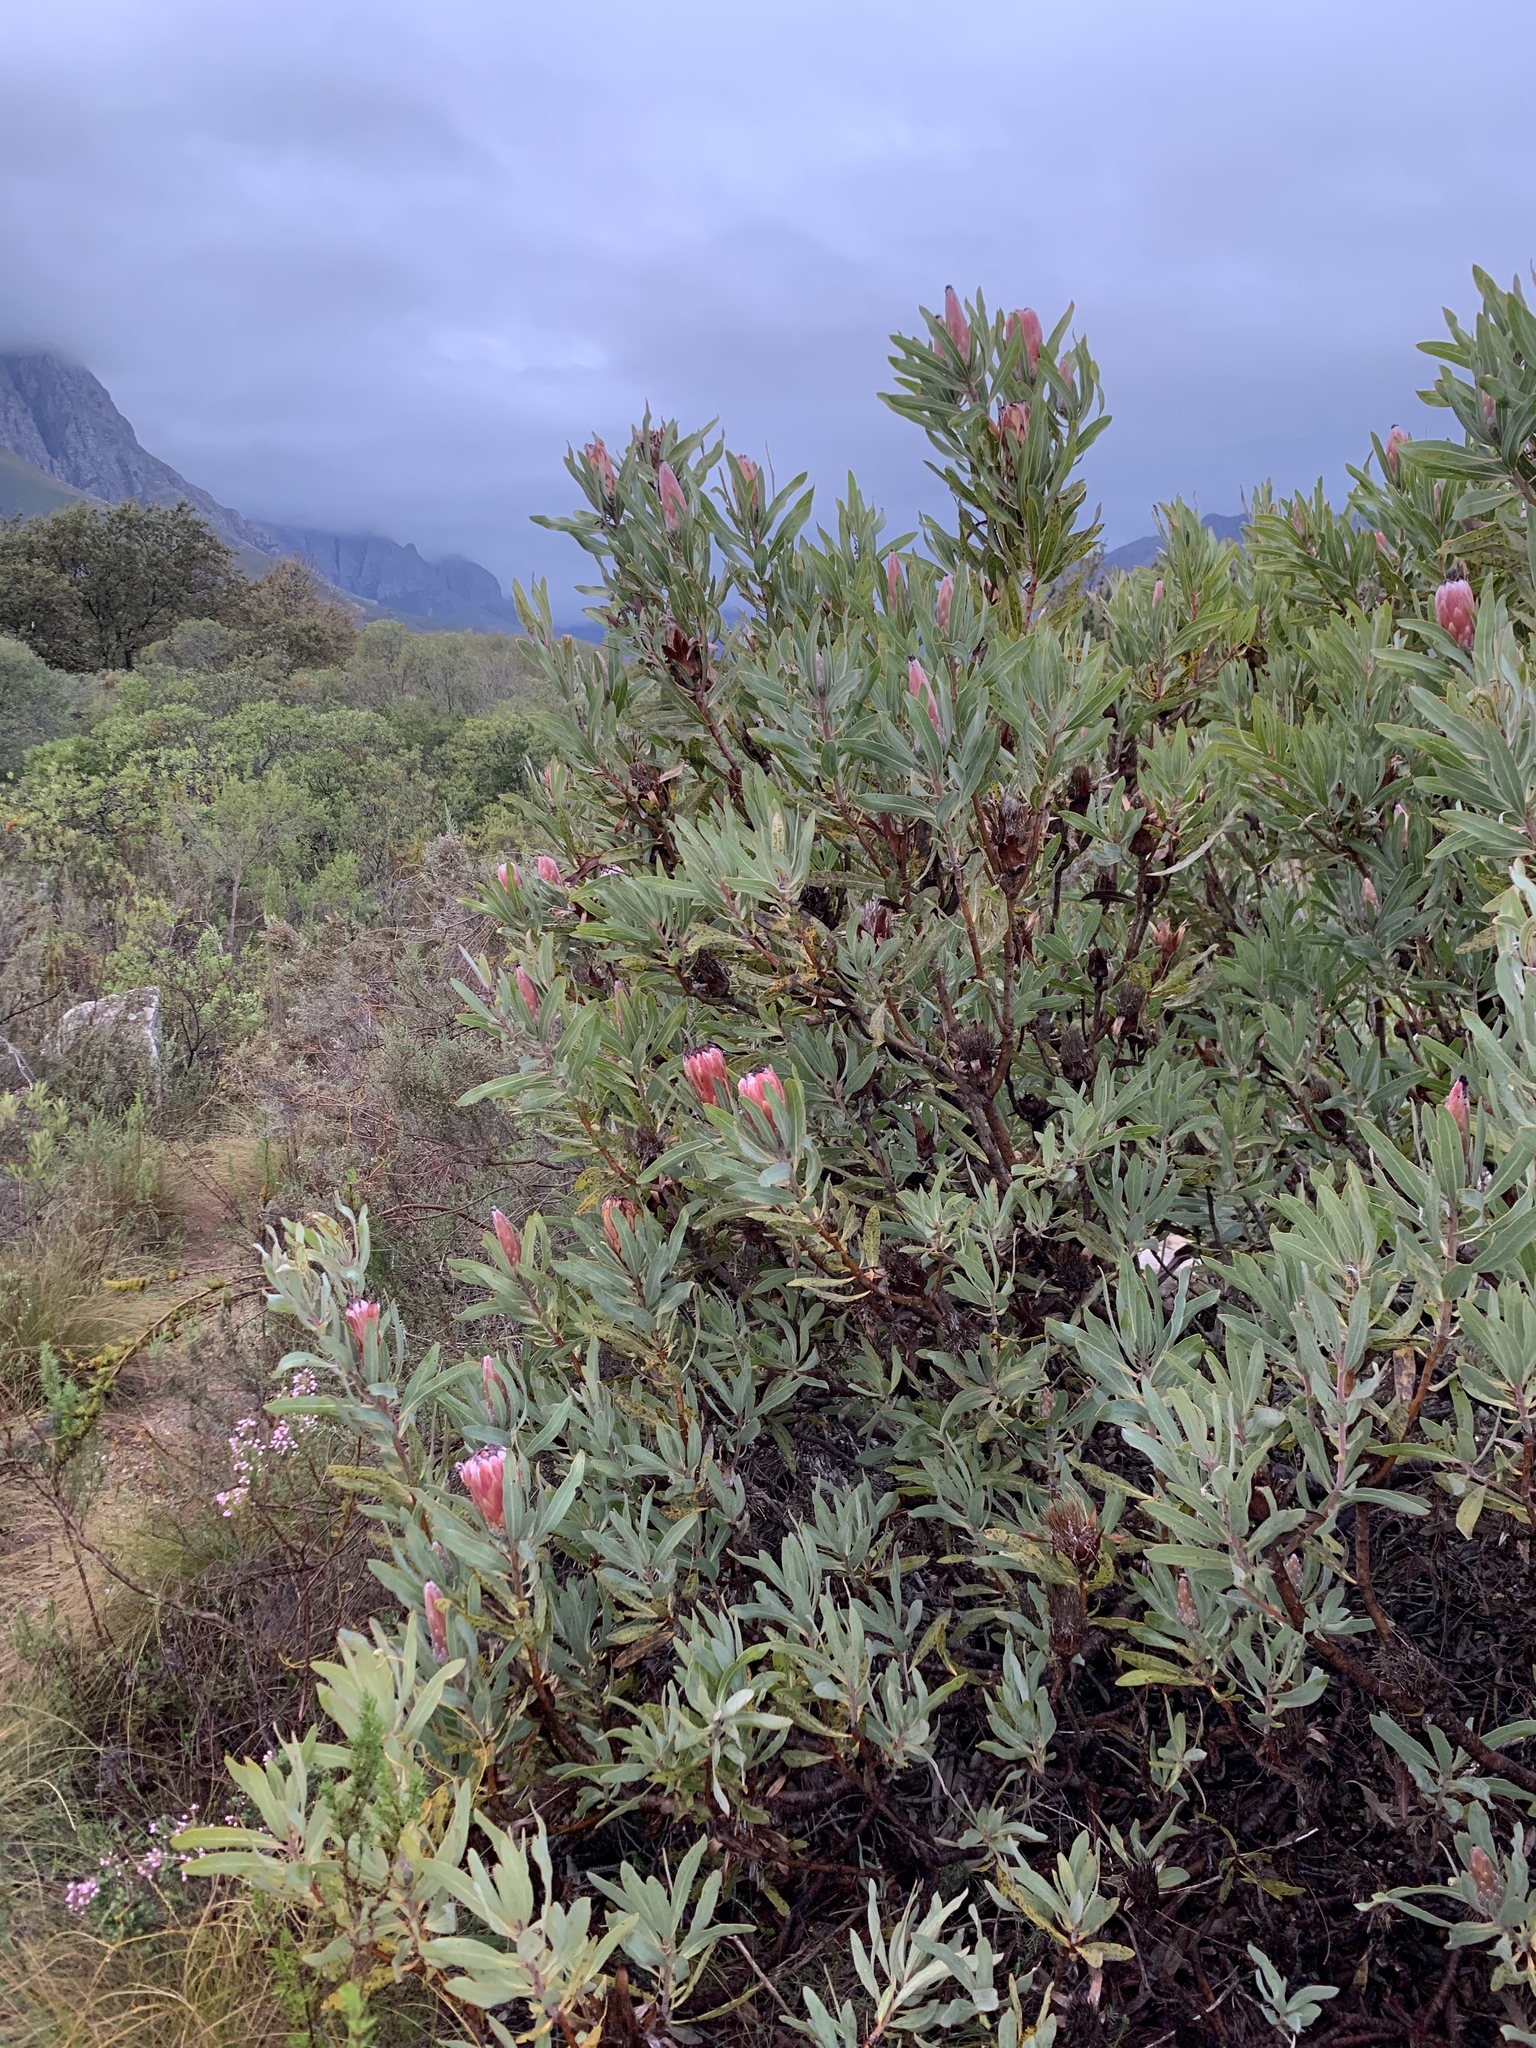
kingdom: Plantae
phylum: Tracheophyta
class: Magnoliopsida
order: Proteales
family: Proteaceae
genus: Protea
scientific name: Protea neriifolia
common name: Blue sugarbush
